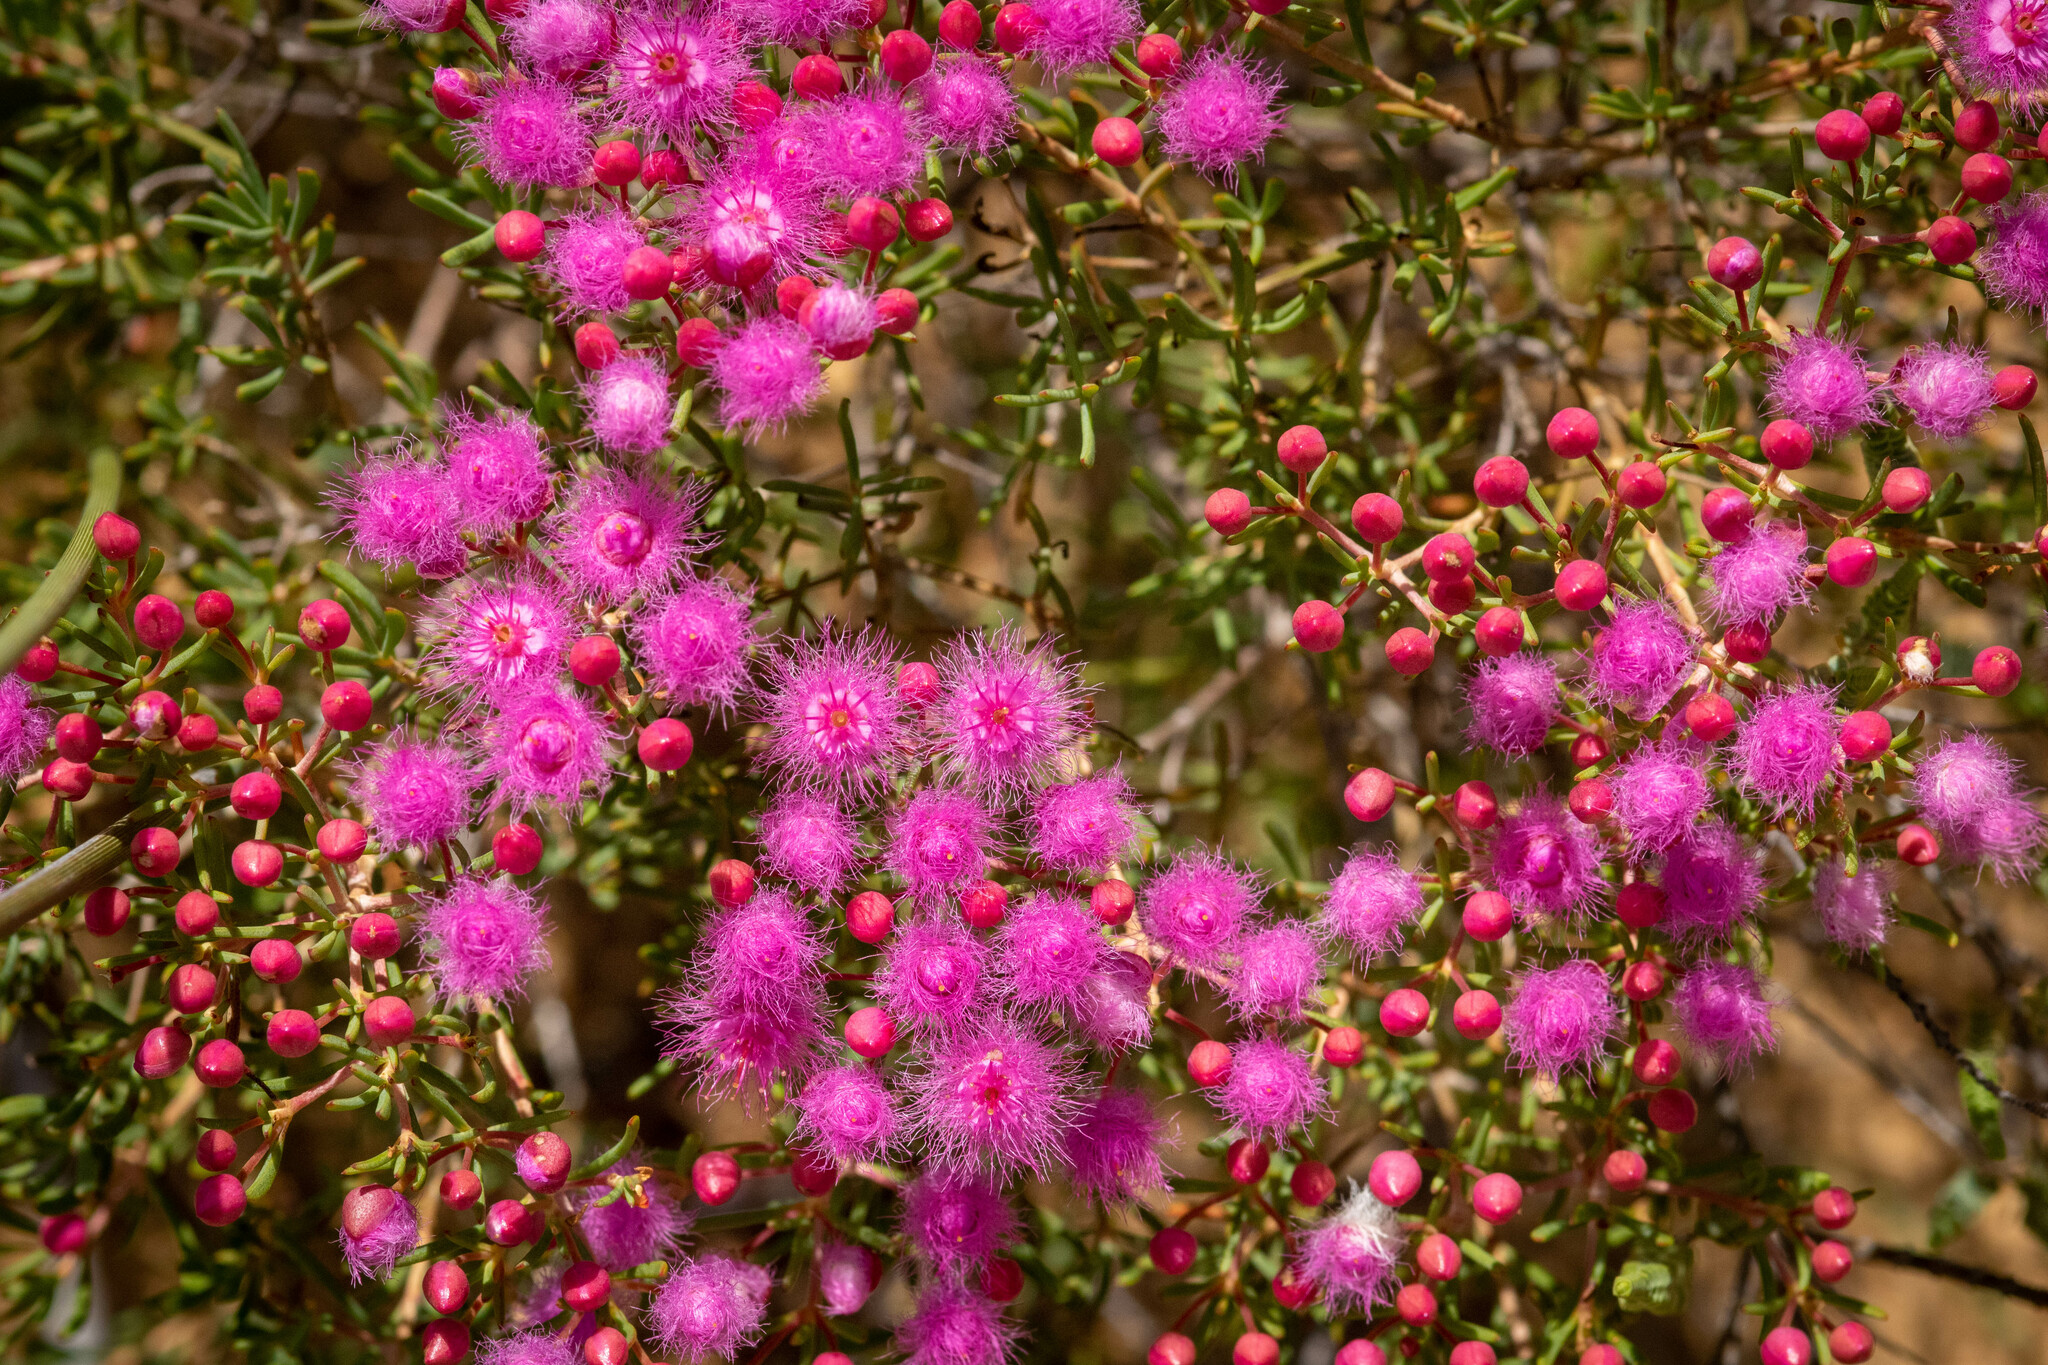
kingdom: Plantae
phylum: Tracheophyta
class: Magnoliopsida
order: Myrtales
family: Myrtaceae
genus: Verticordia
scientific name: Verticordia monadelpha
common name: Woolly feather-flower
